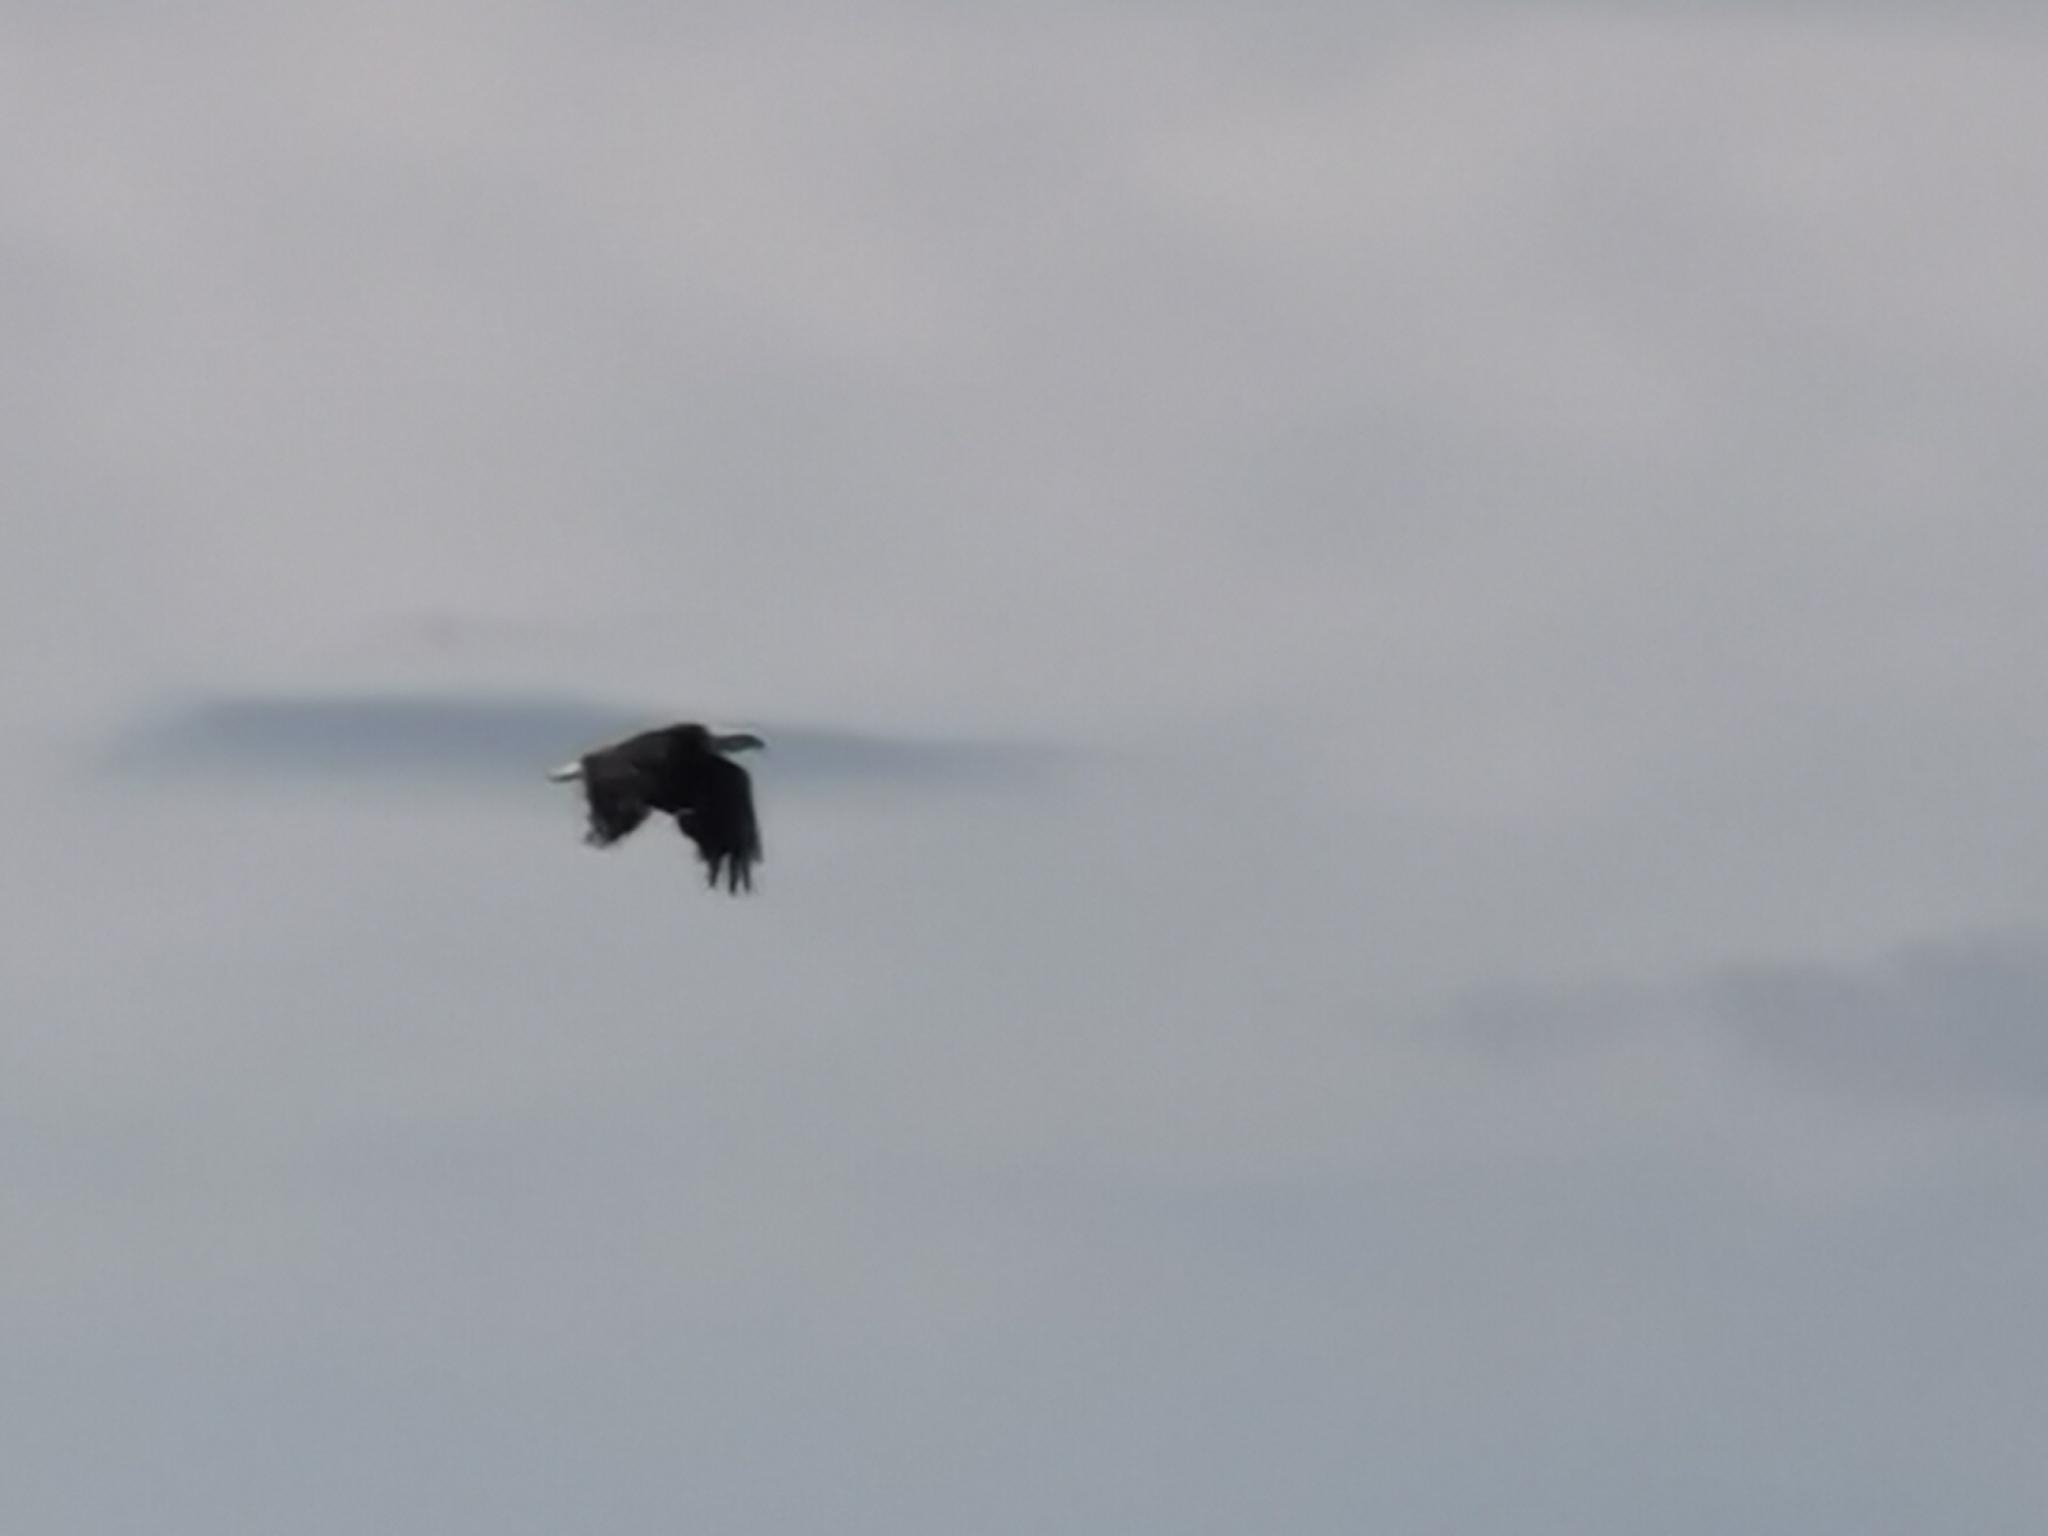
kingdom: Animalia
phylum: Chordata
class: Aves
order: Accipitriformes
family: Accipitridae
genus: Haliaeetus
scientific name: Haliaeetus leucocephalus
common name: Bald eagle
